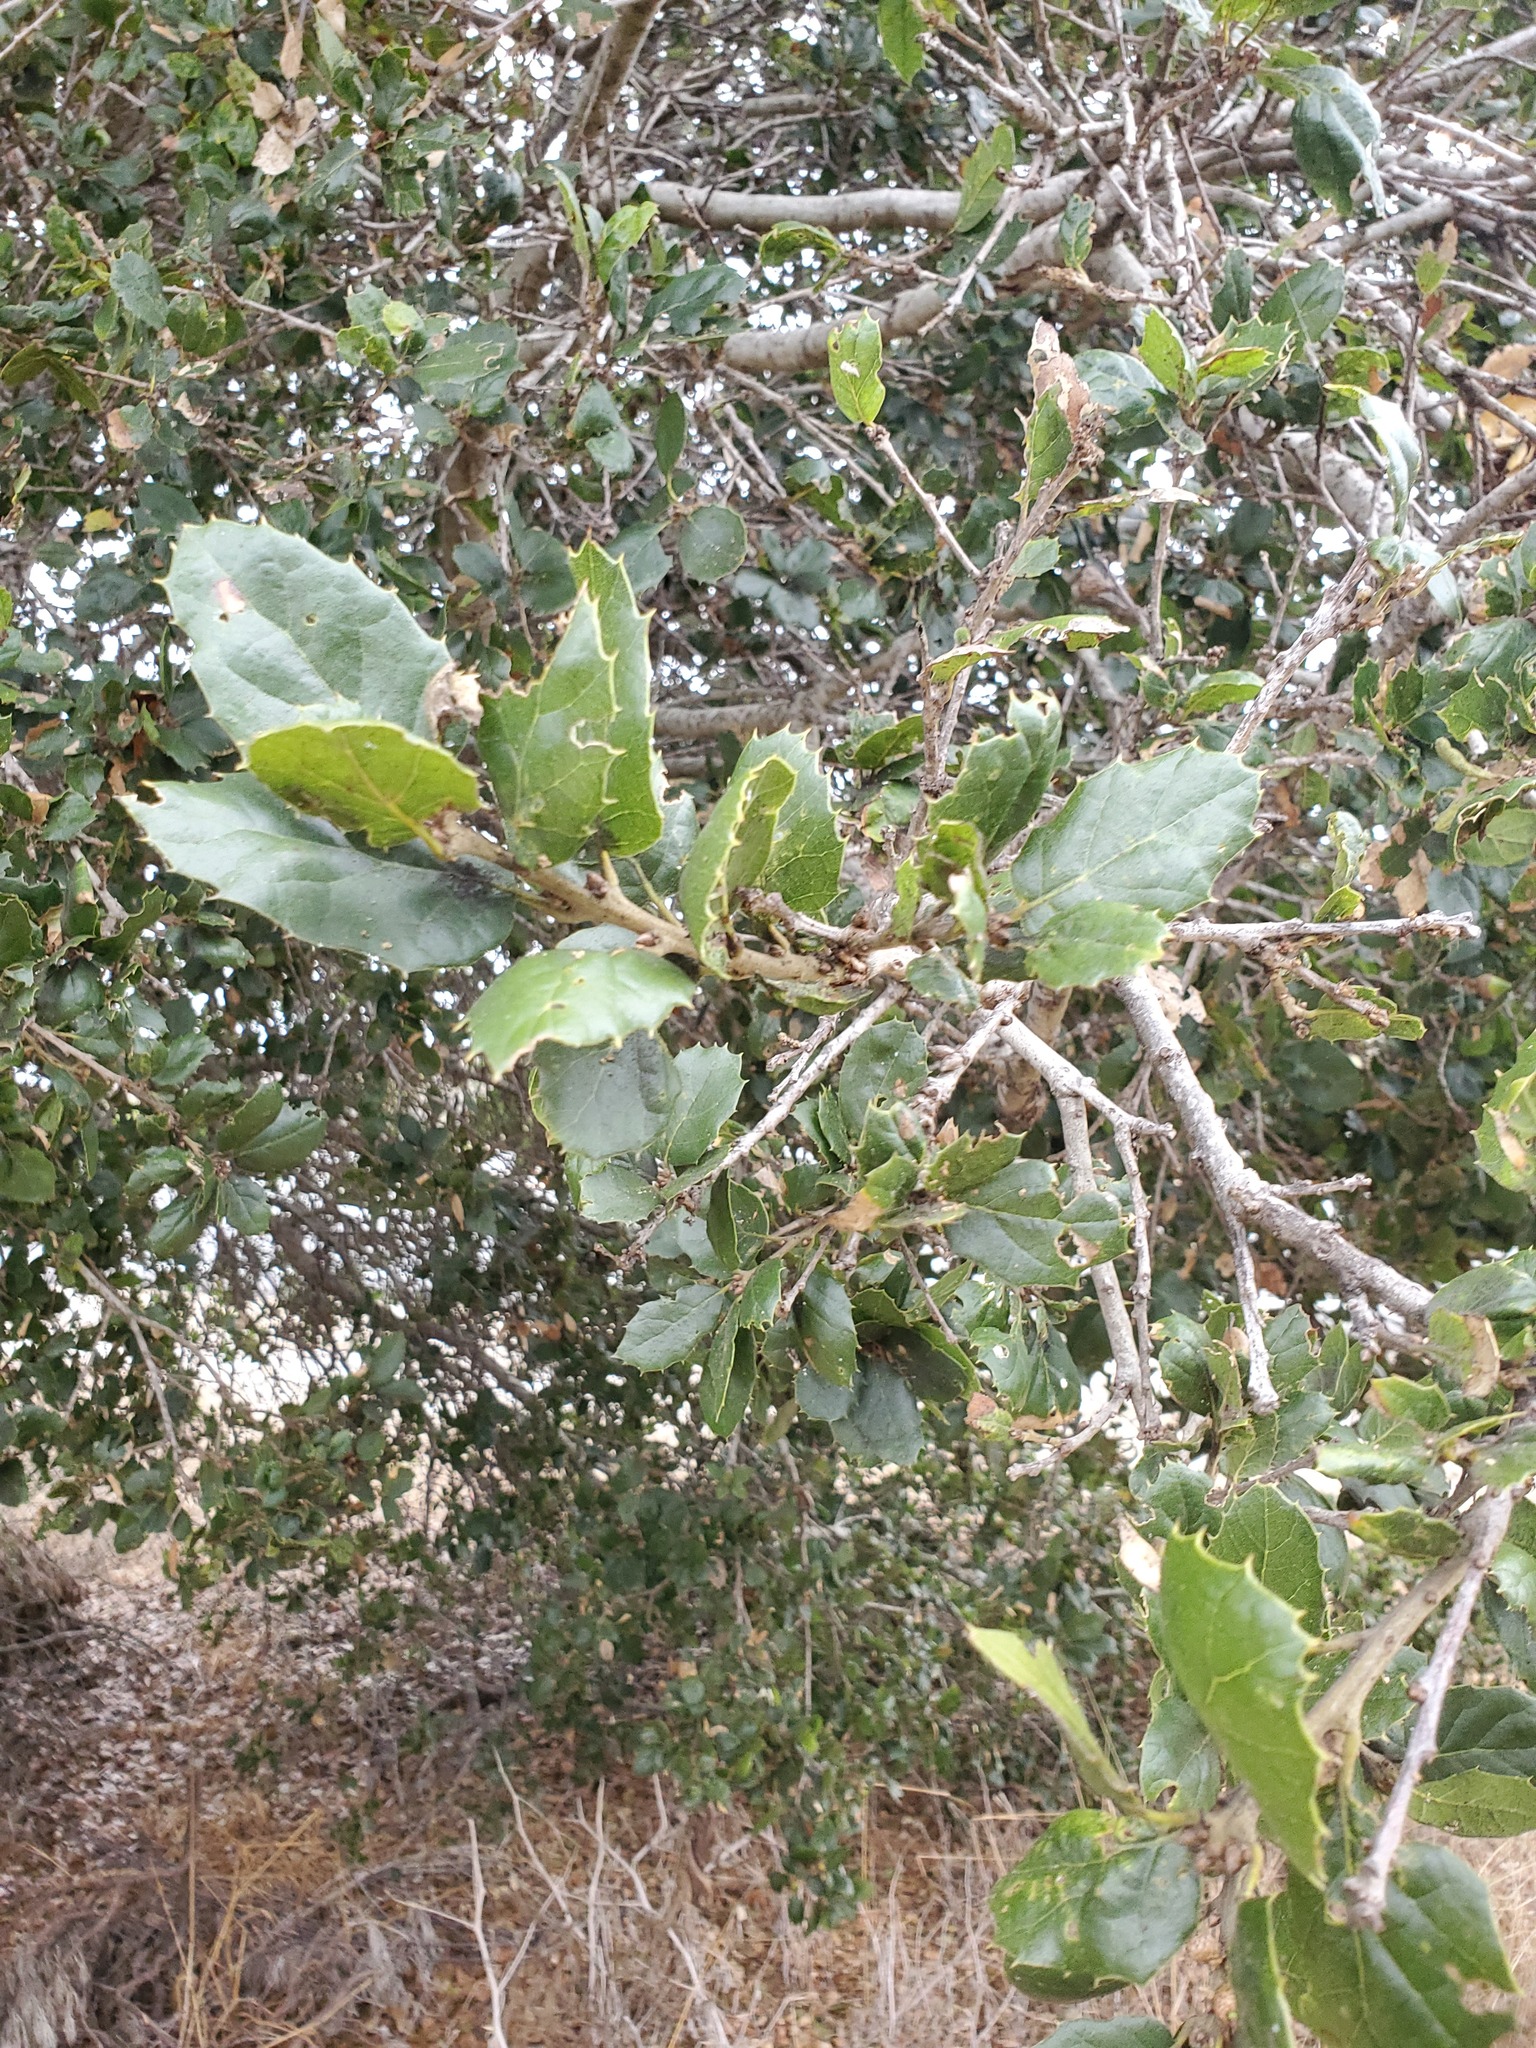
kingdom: Plantae
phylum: Tracheophyta
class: Magnoliopsida
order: Fagales
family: Fagaceae
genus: Quercus
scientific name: Quercus agrifolia
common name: California live oak
